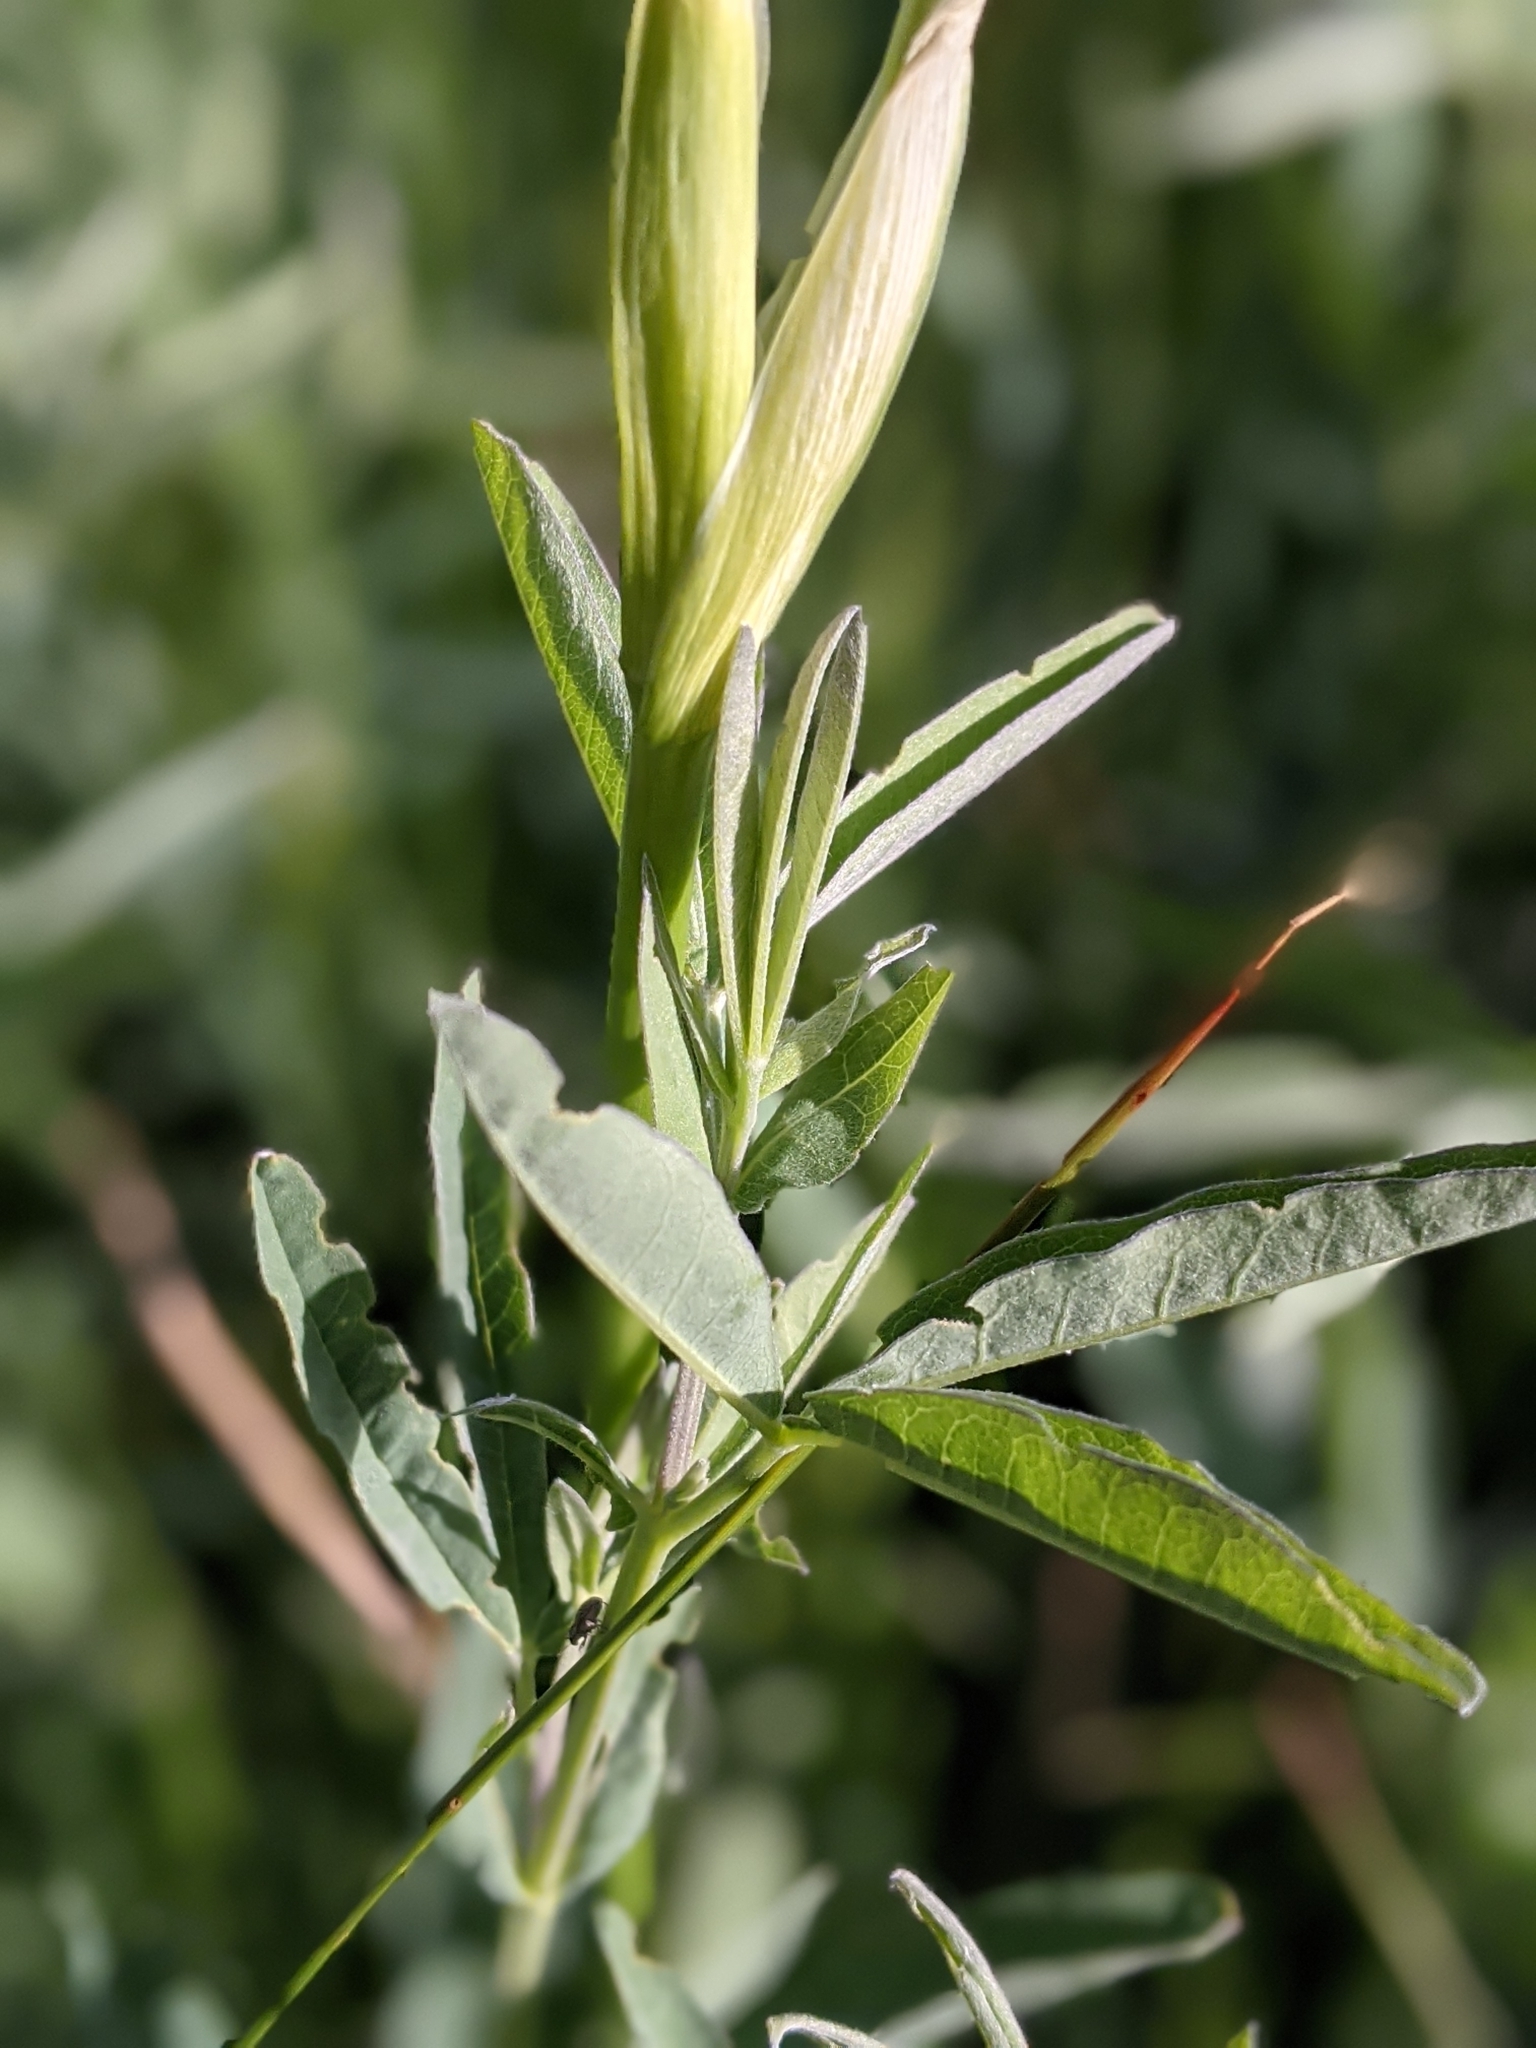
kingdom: Plantae
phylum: Tracheophyta
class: Liliopsida
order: Asparagales
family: Iridaceae
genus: Iris
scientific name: Iris missouriensis
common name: Rocky mountain iris
